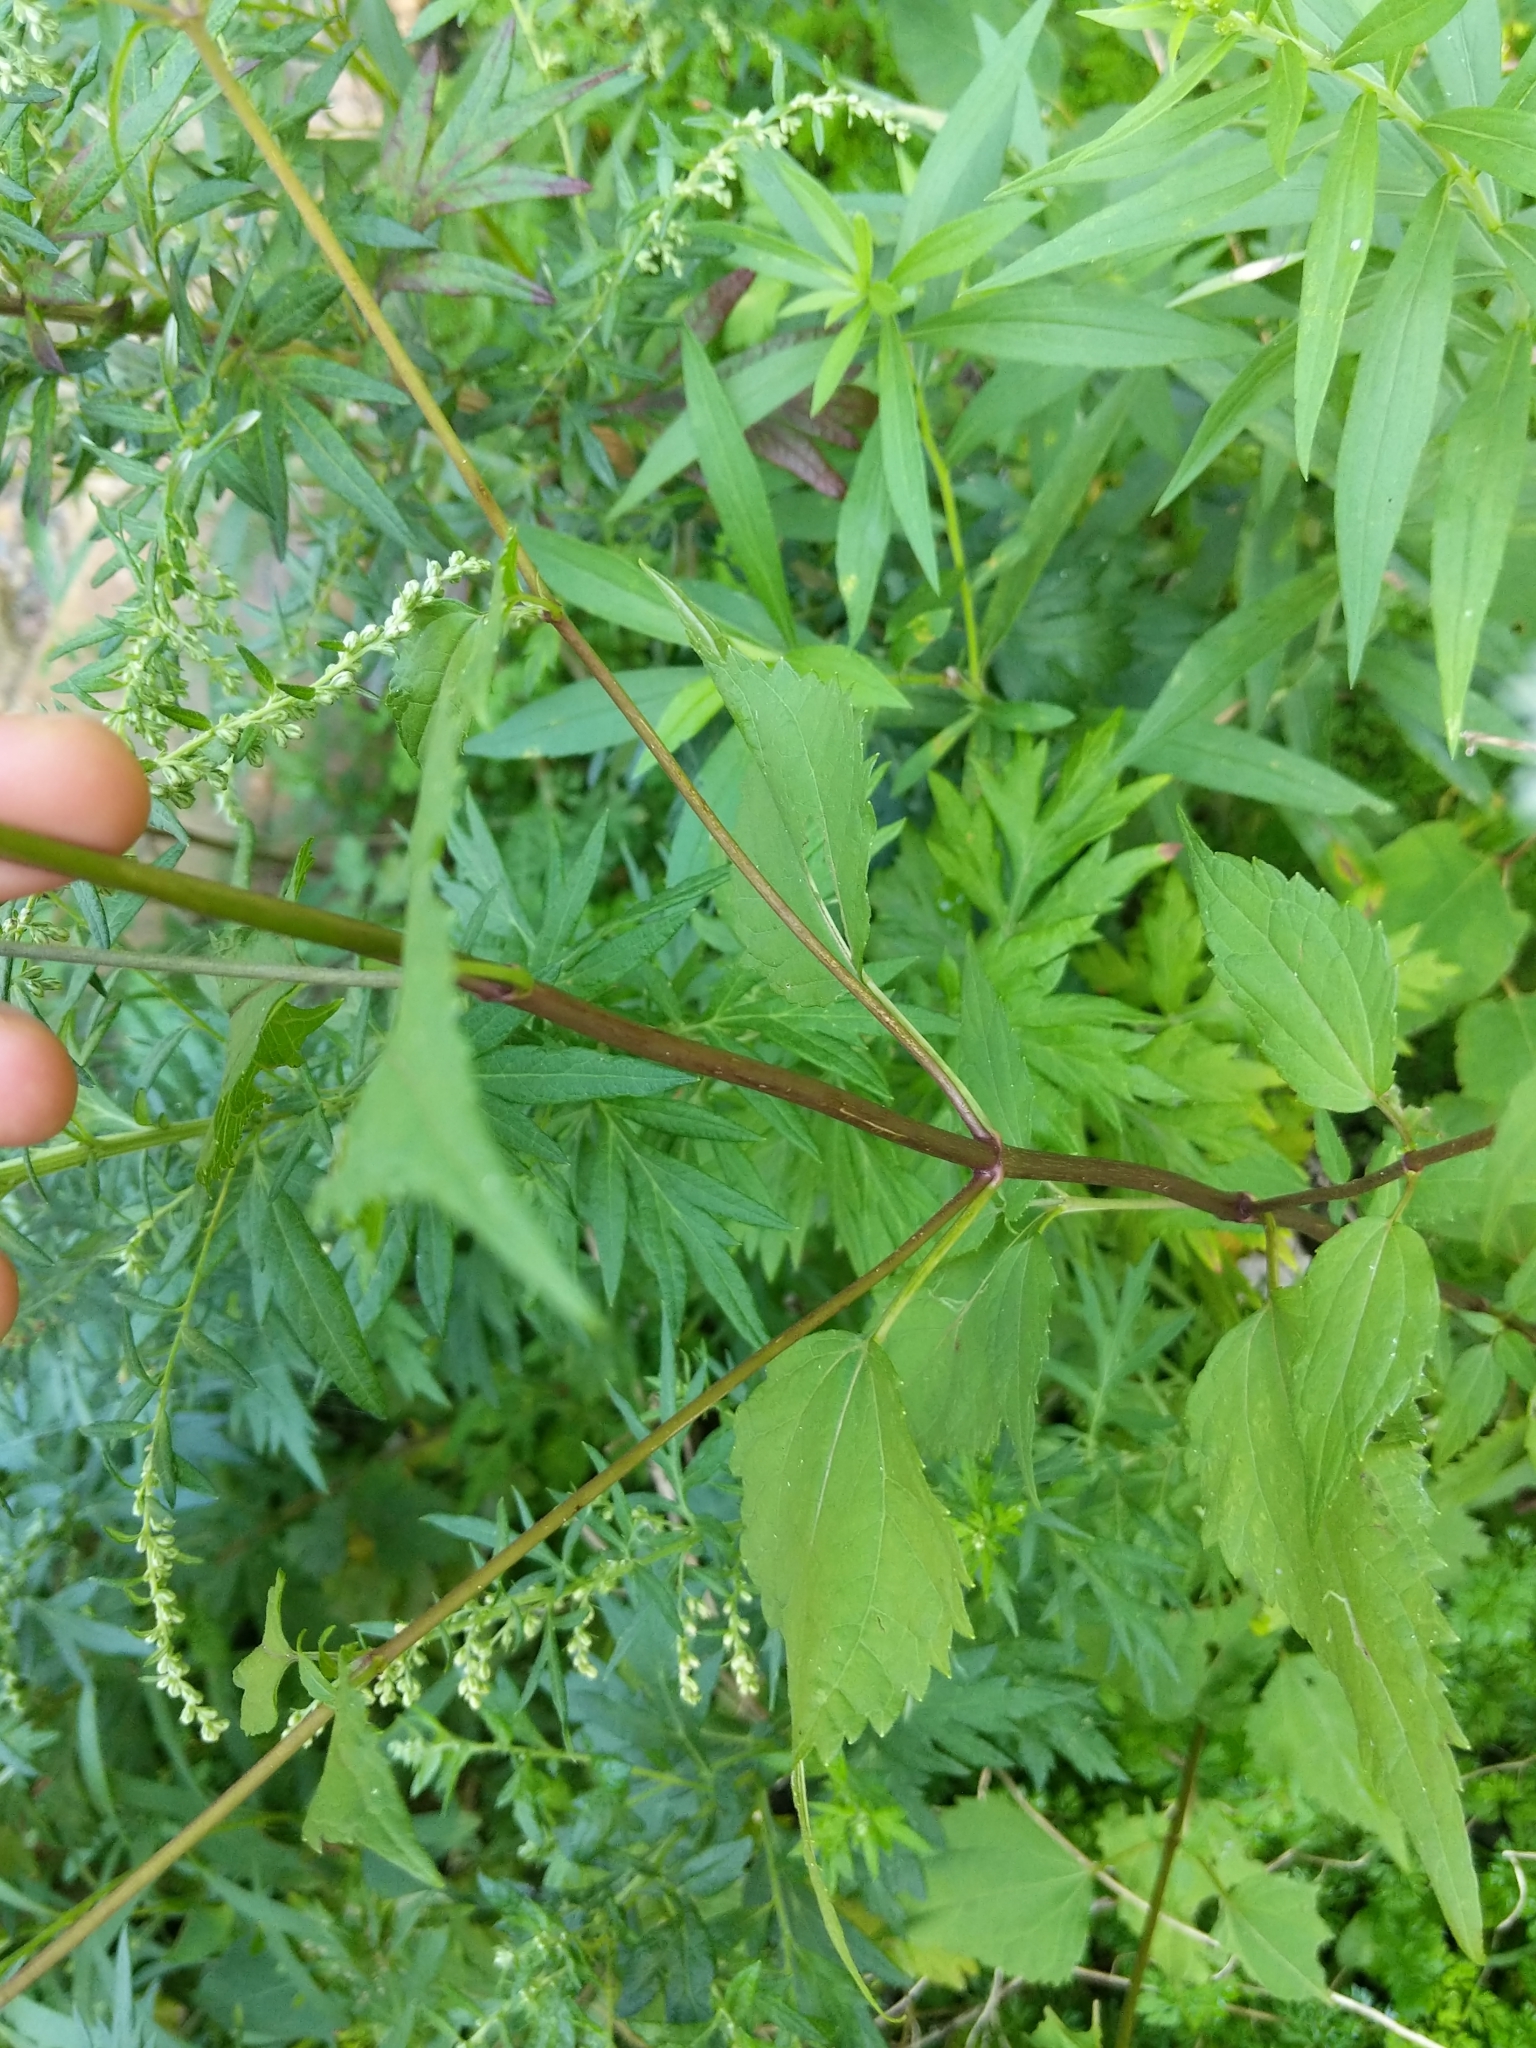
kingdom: Plantae
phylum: Tracheophyta
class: Magnoliopsida
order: Asterales
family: Asteraceae
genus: Ageratina
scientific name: Ageratina altissima
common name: White snakeroot
